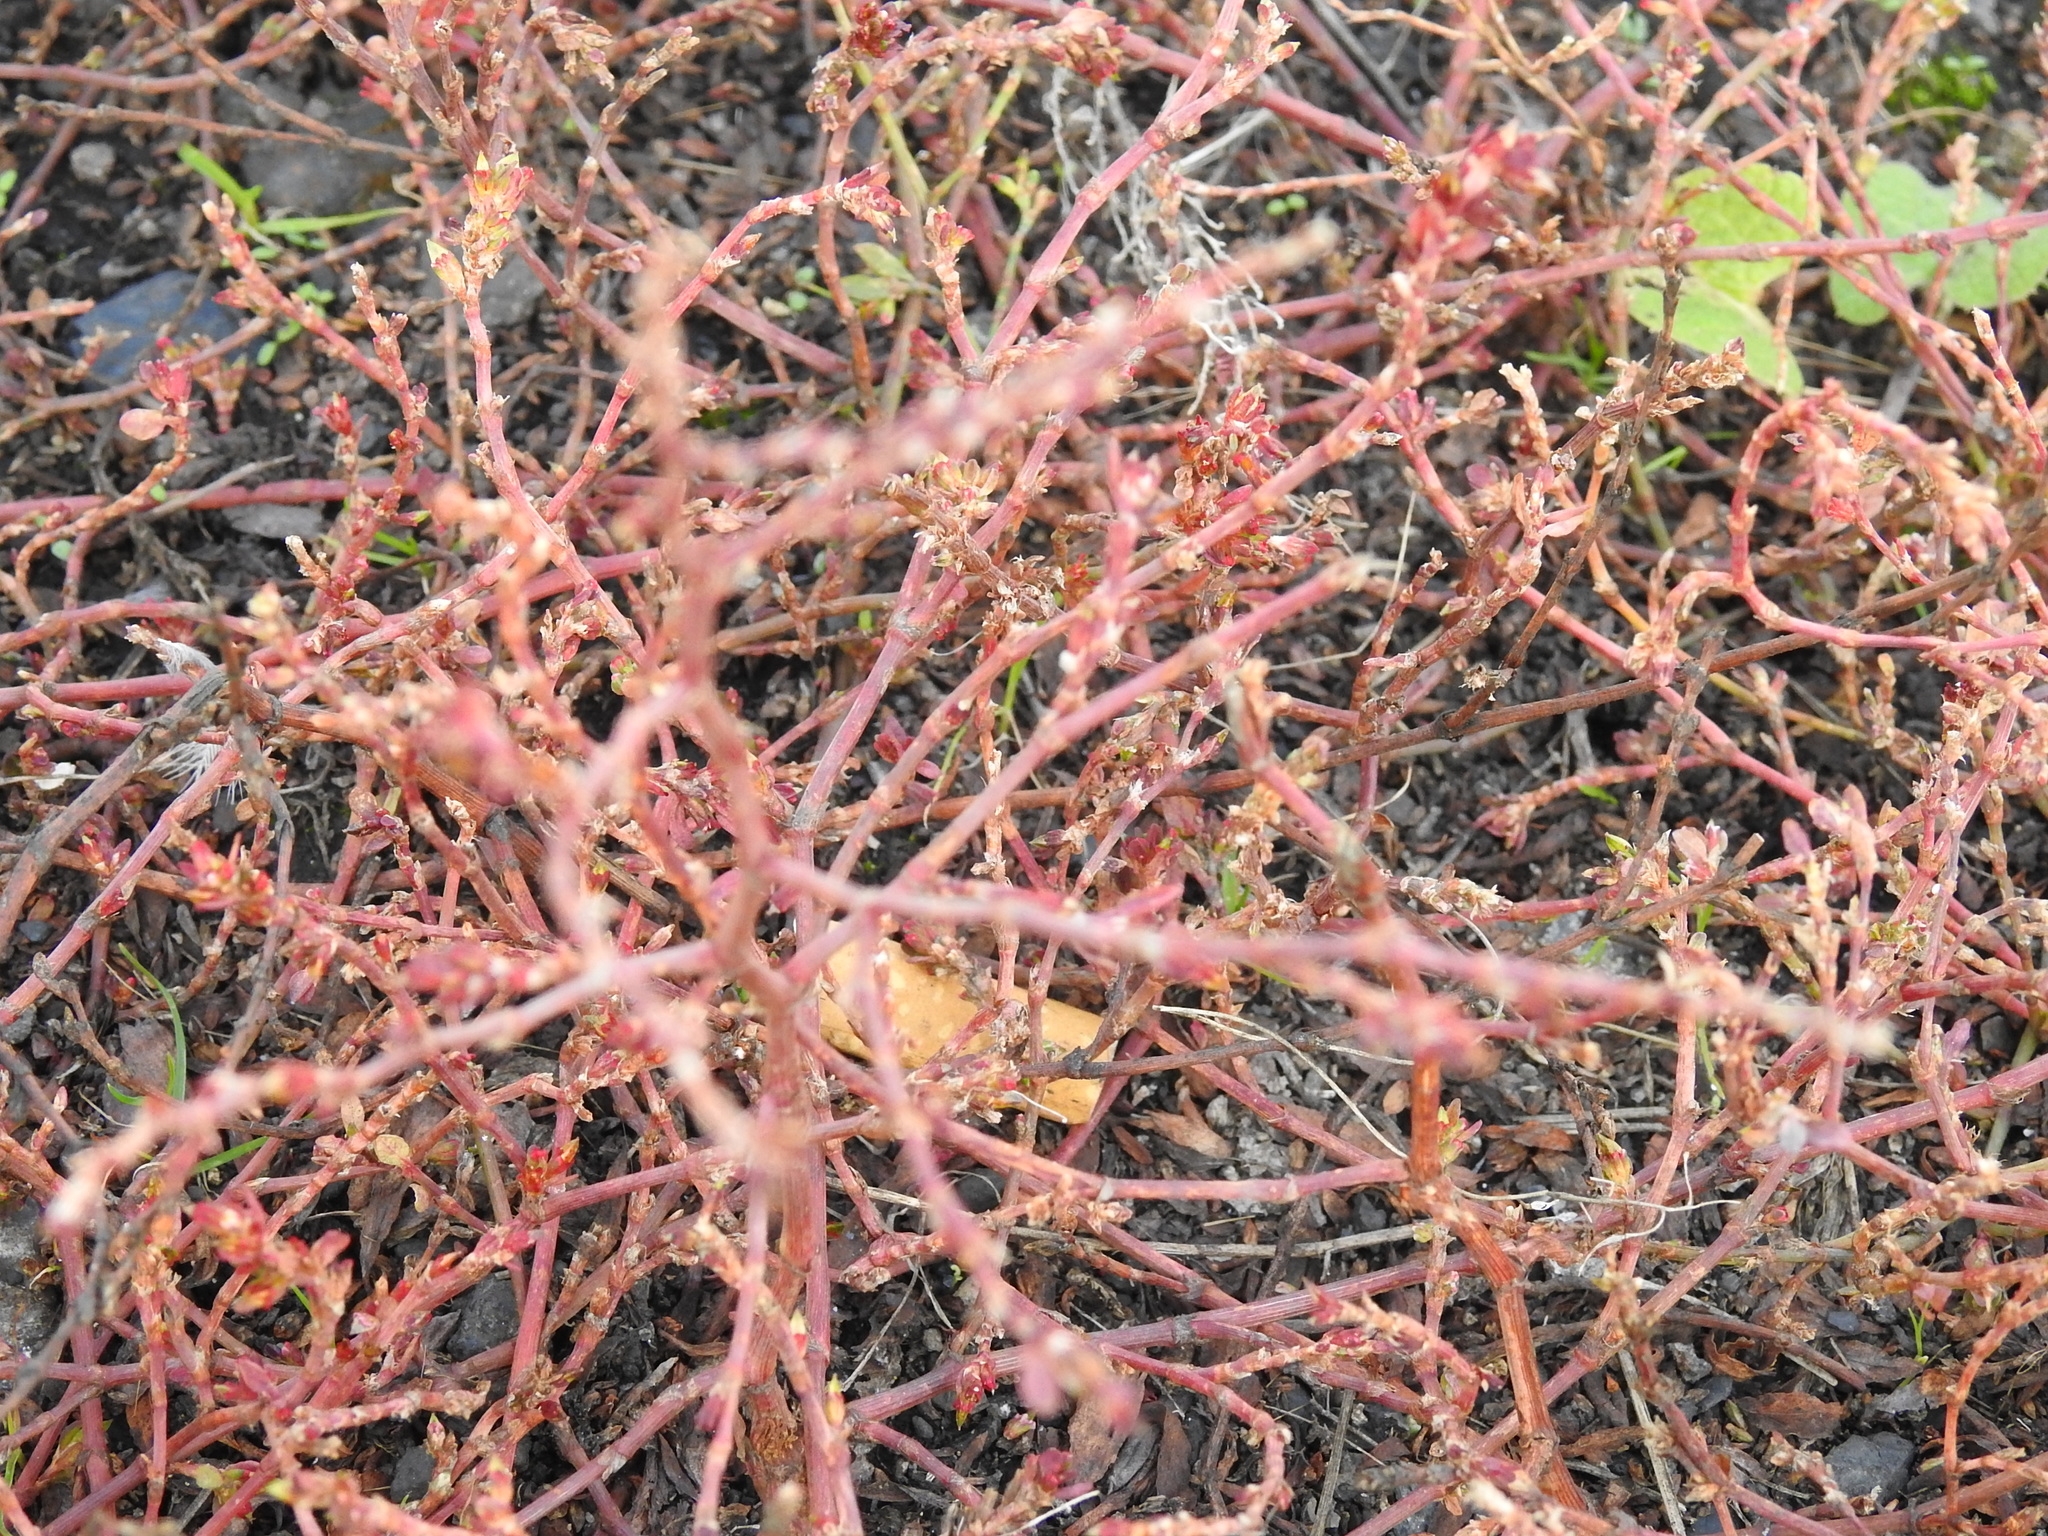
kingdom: Plantae
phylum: Tracheophyta
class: Magnoliopsida
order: Caryophyllales
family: Polygonaceae
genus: Polygonum
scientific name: Polygonum arenastrum
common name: Equal-leaved knotgrass
